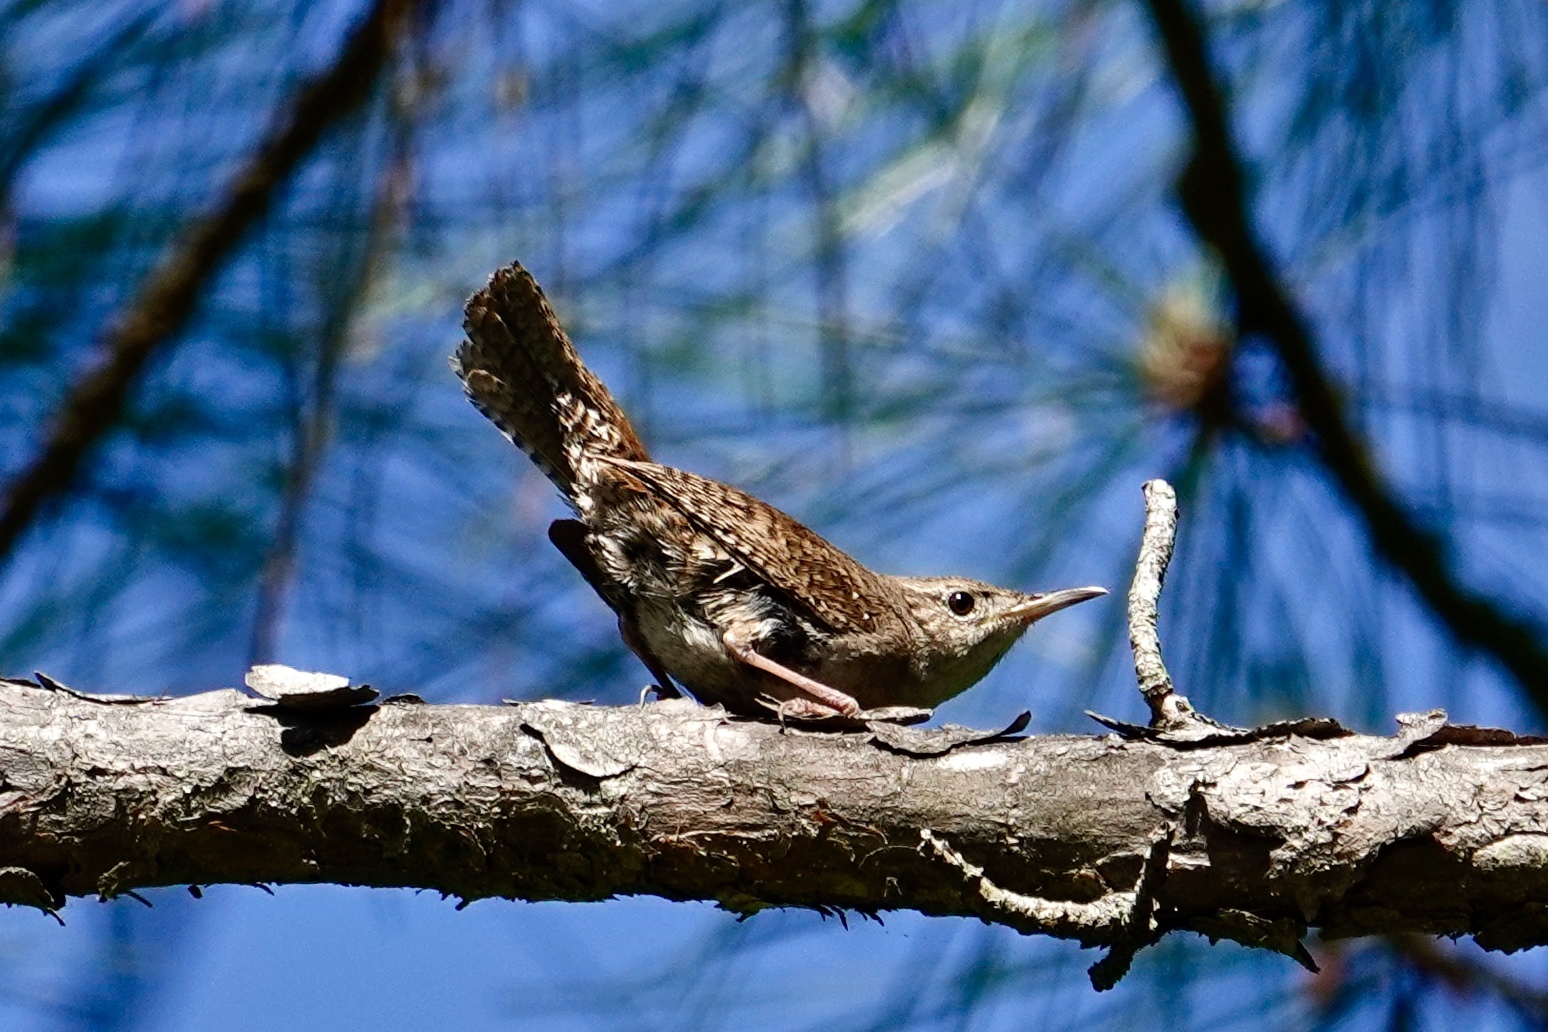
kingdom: Animalia
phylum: Chordata
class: Aves
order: Passeriformes
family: Troglodytidae
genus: Troglodytes
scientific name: Troglodytes aedon
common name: House wren
